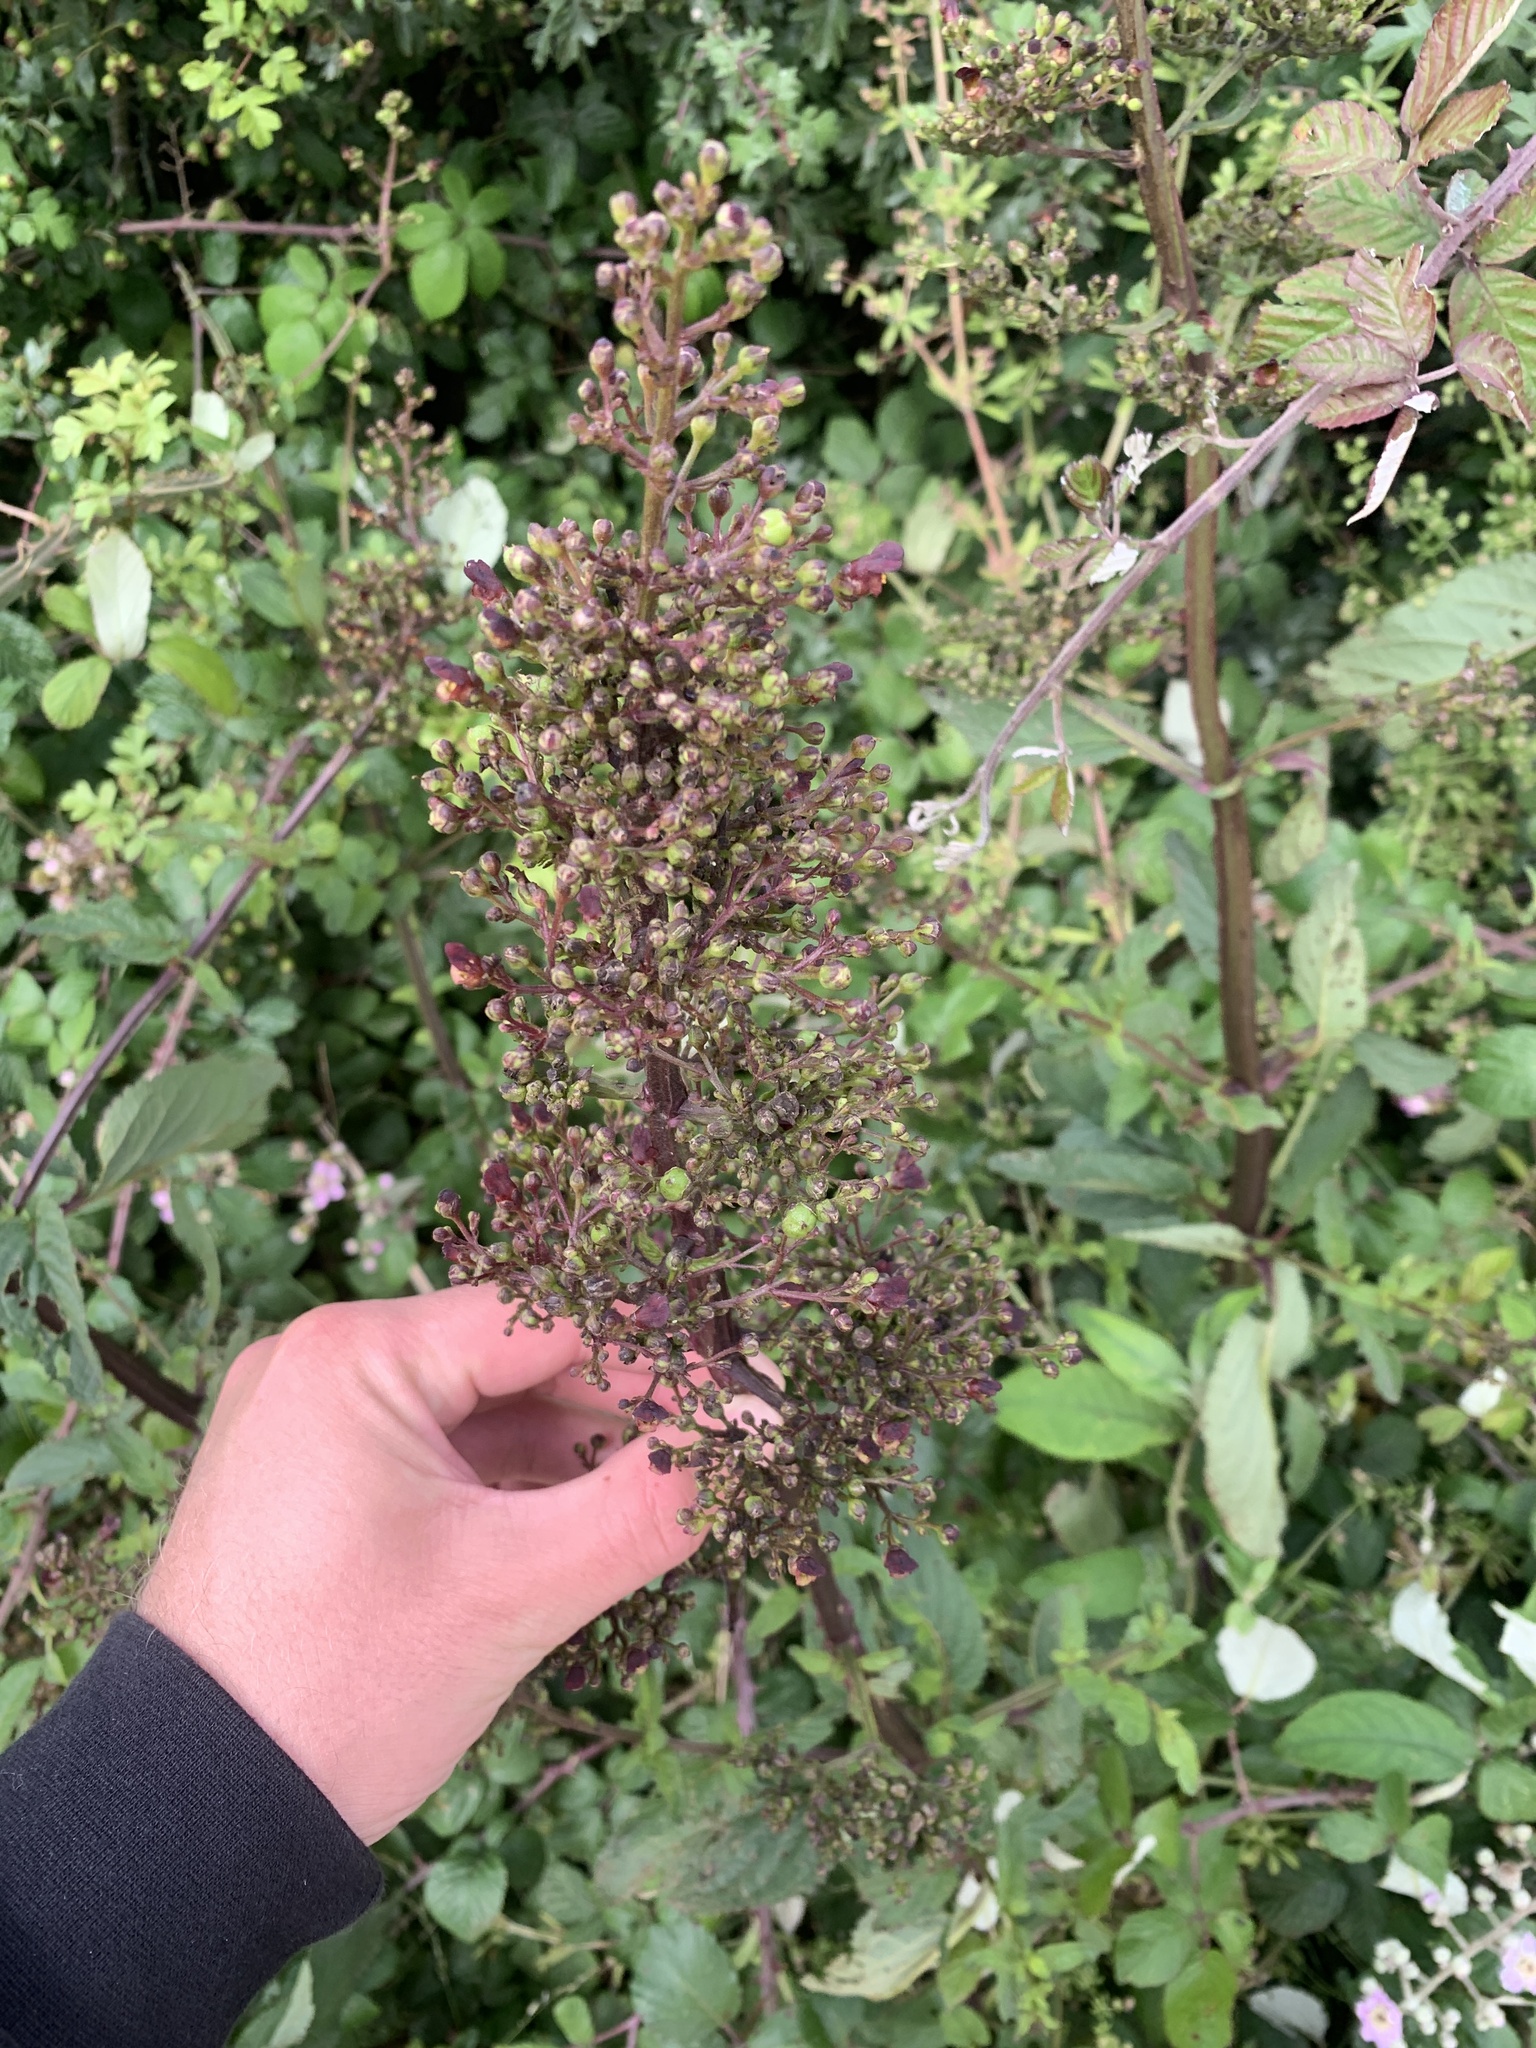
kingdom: Plantae
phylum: Tracheophyta
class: Magnoliopsida
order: Lamiales
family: Scrophulariaceae
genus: Scrophularia
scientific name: Scrophularia nodosa
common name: Common figwort
